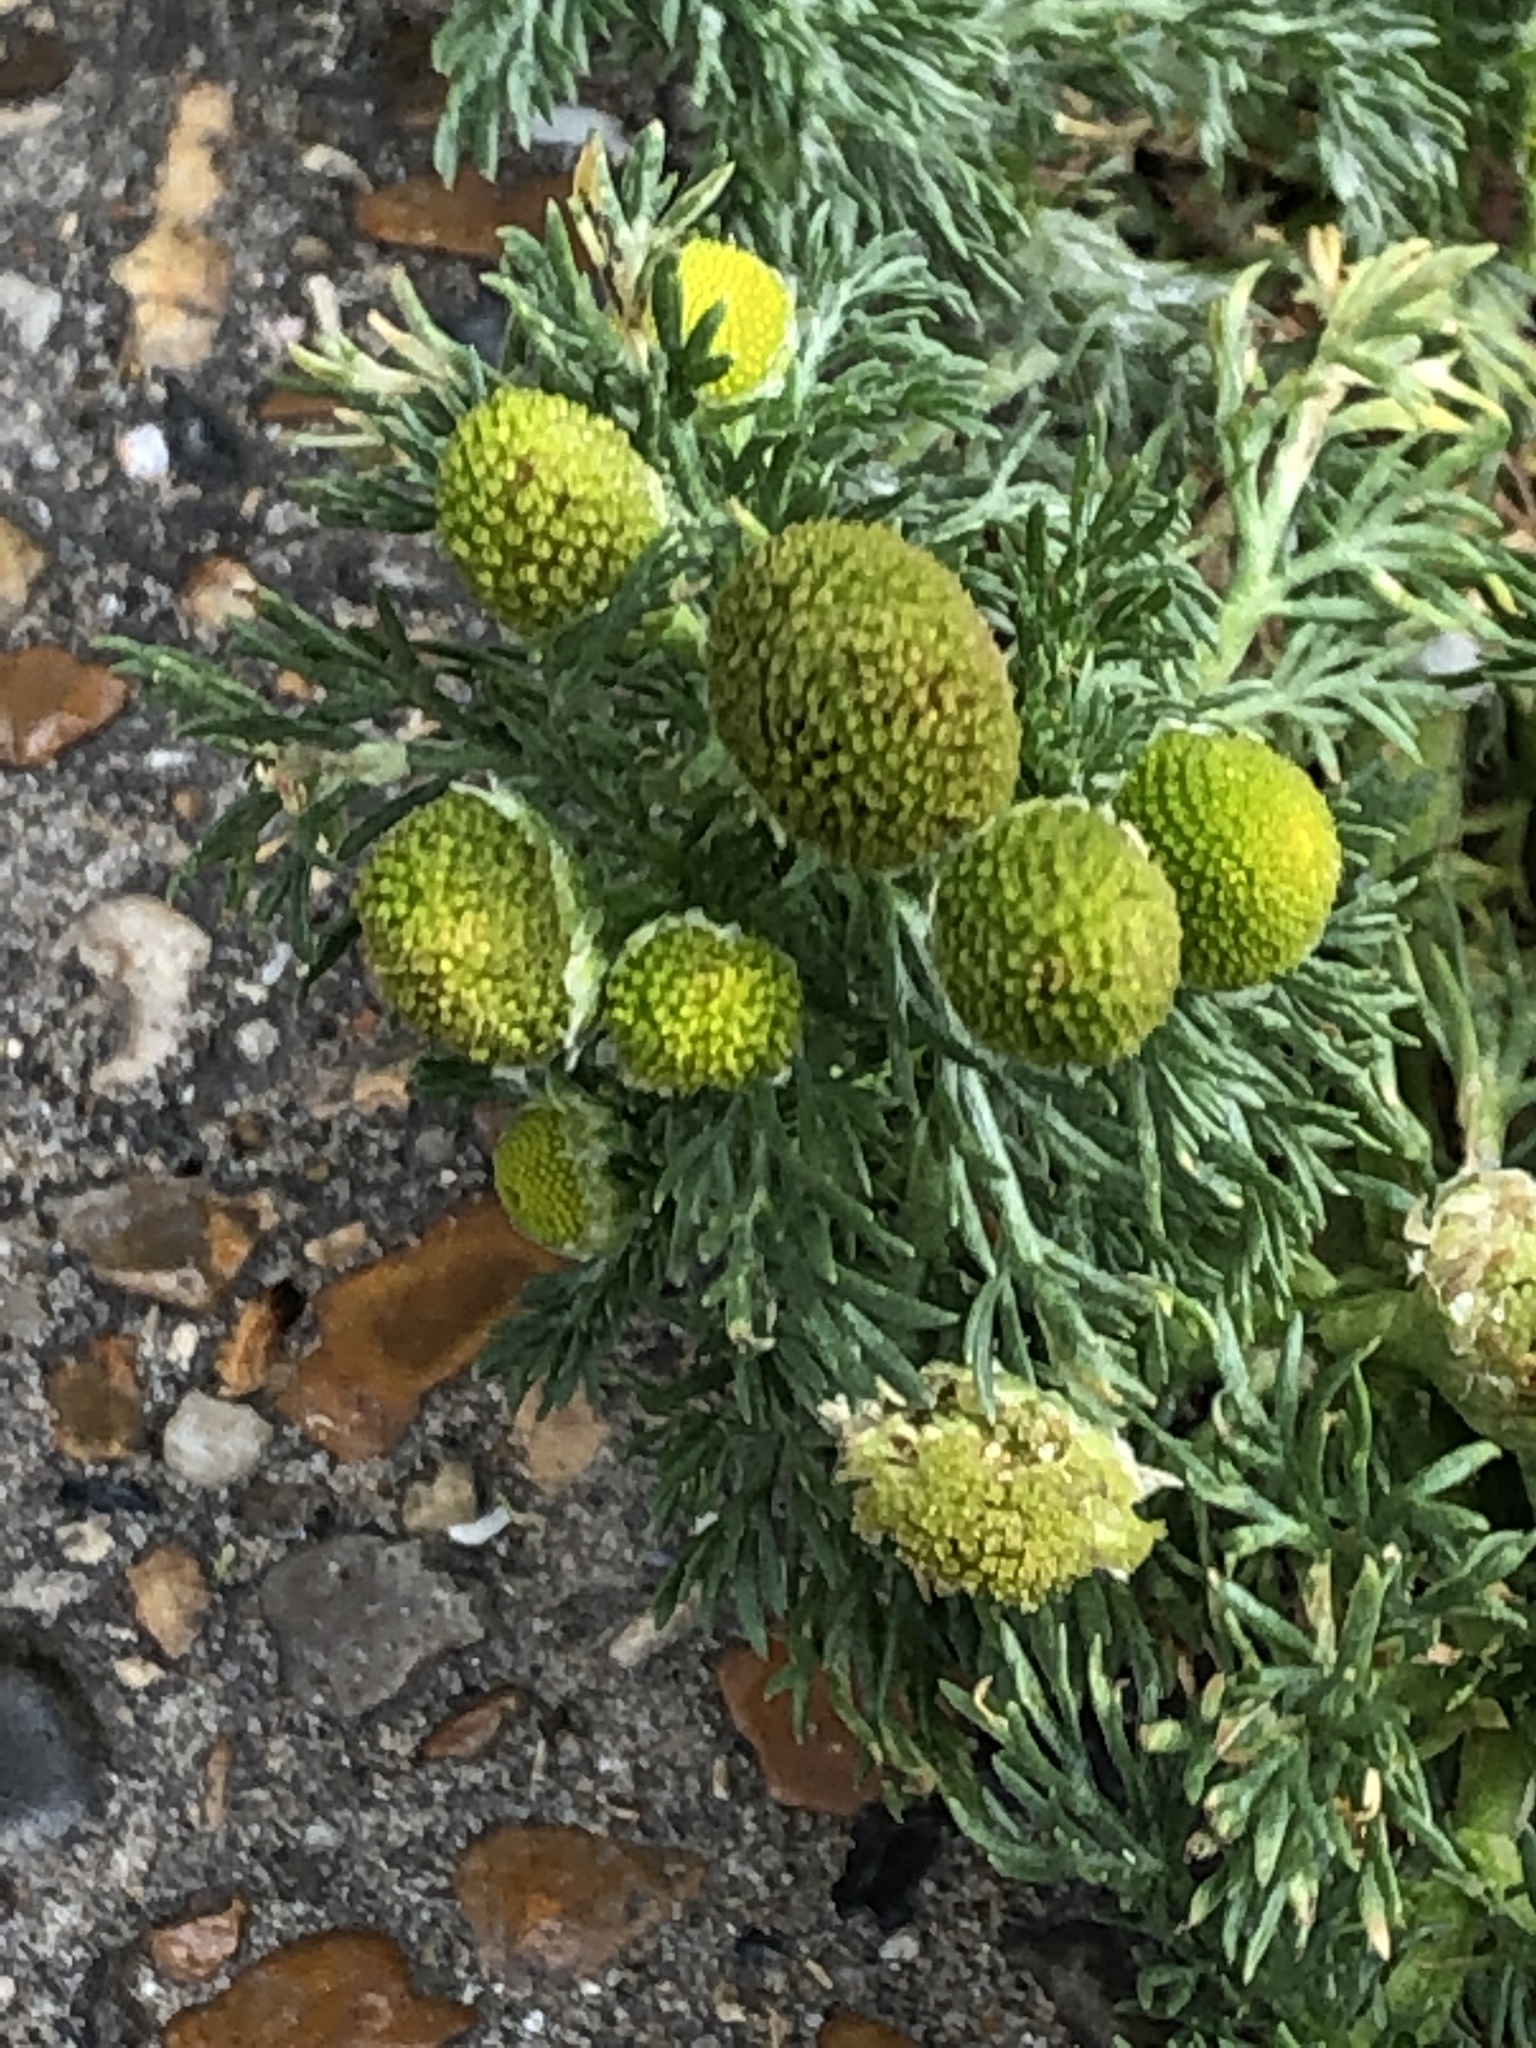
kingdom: Plantae
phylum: Tracheophyta
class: Magnoliopsida
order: Asterales
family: Asteraceae
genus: Matricaria
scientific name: Matricaria discoidea
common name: Disc mayweed
